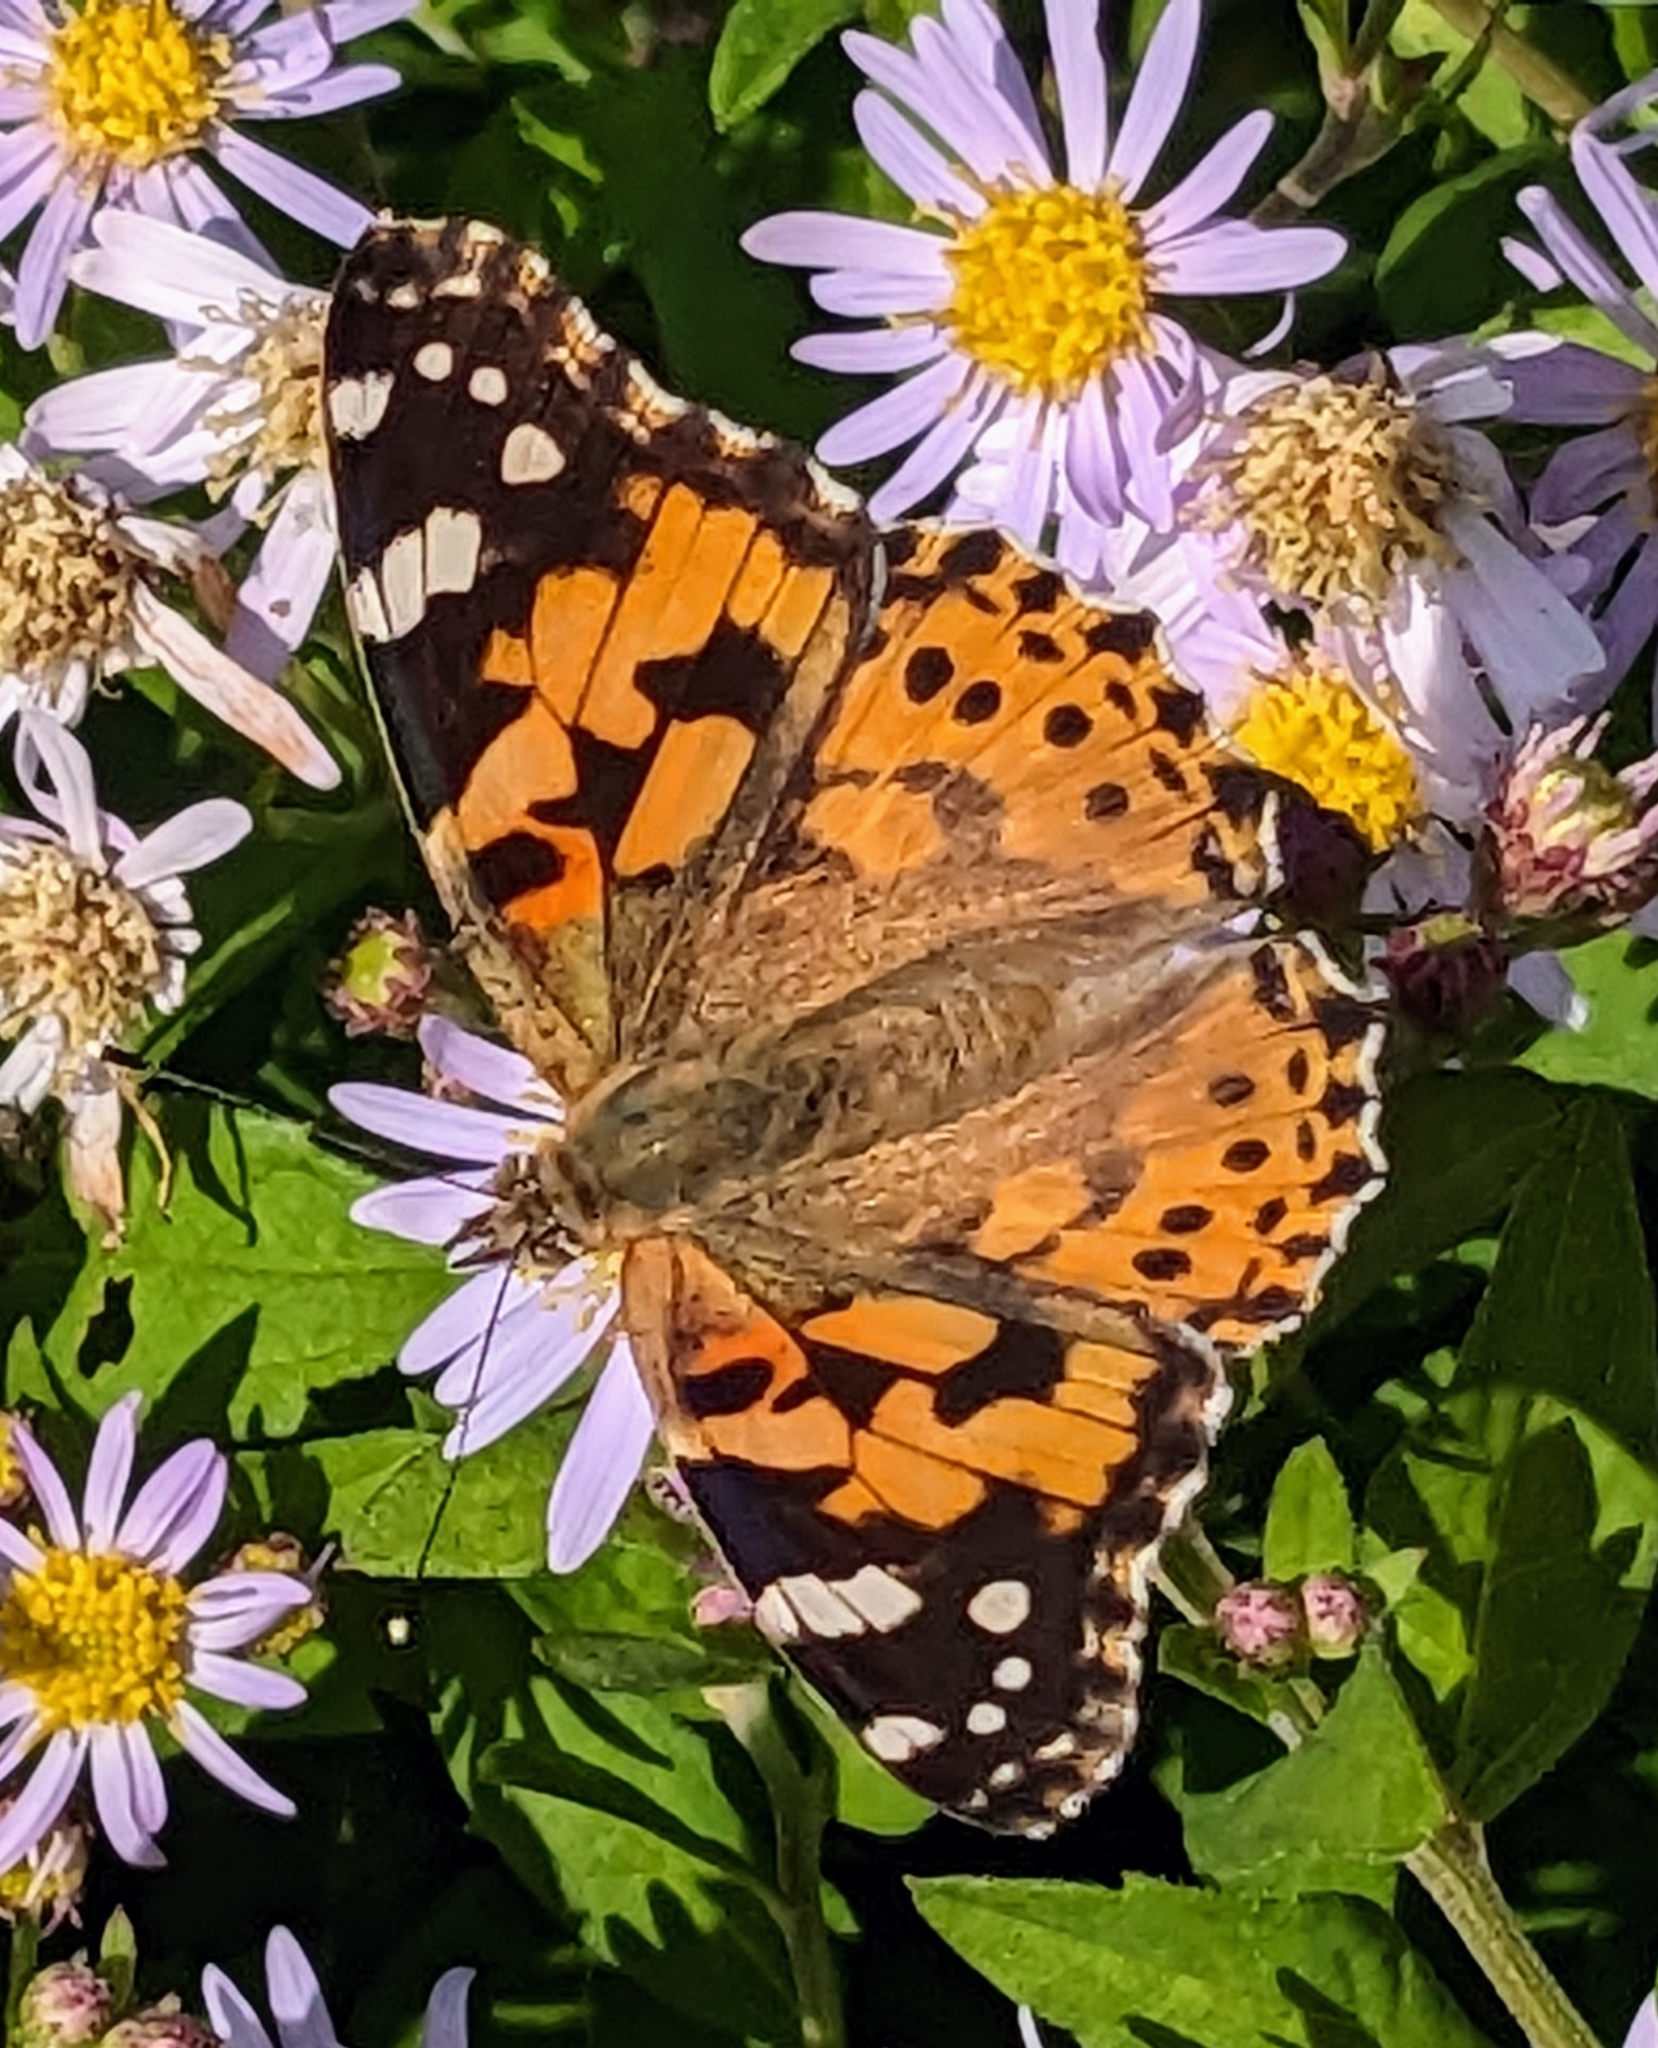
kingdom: Animalia
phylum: Arthropoda
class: Insecta
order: Lepidoptera
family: Nymphalidae
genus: Vanessa
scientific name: Vanessa cardui
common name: Painted lady
